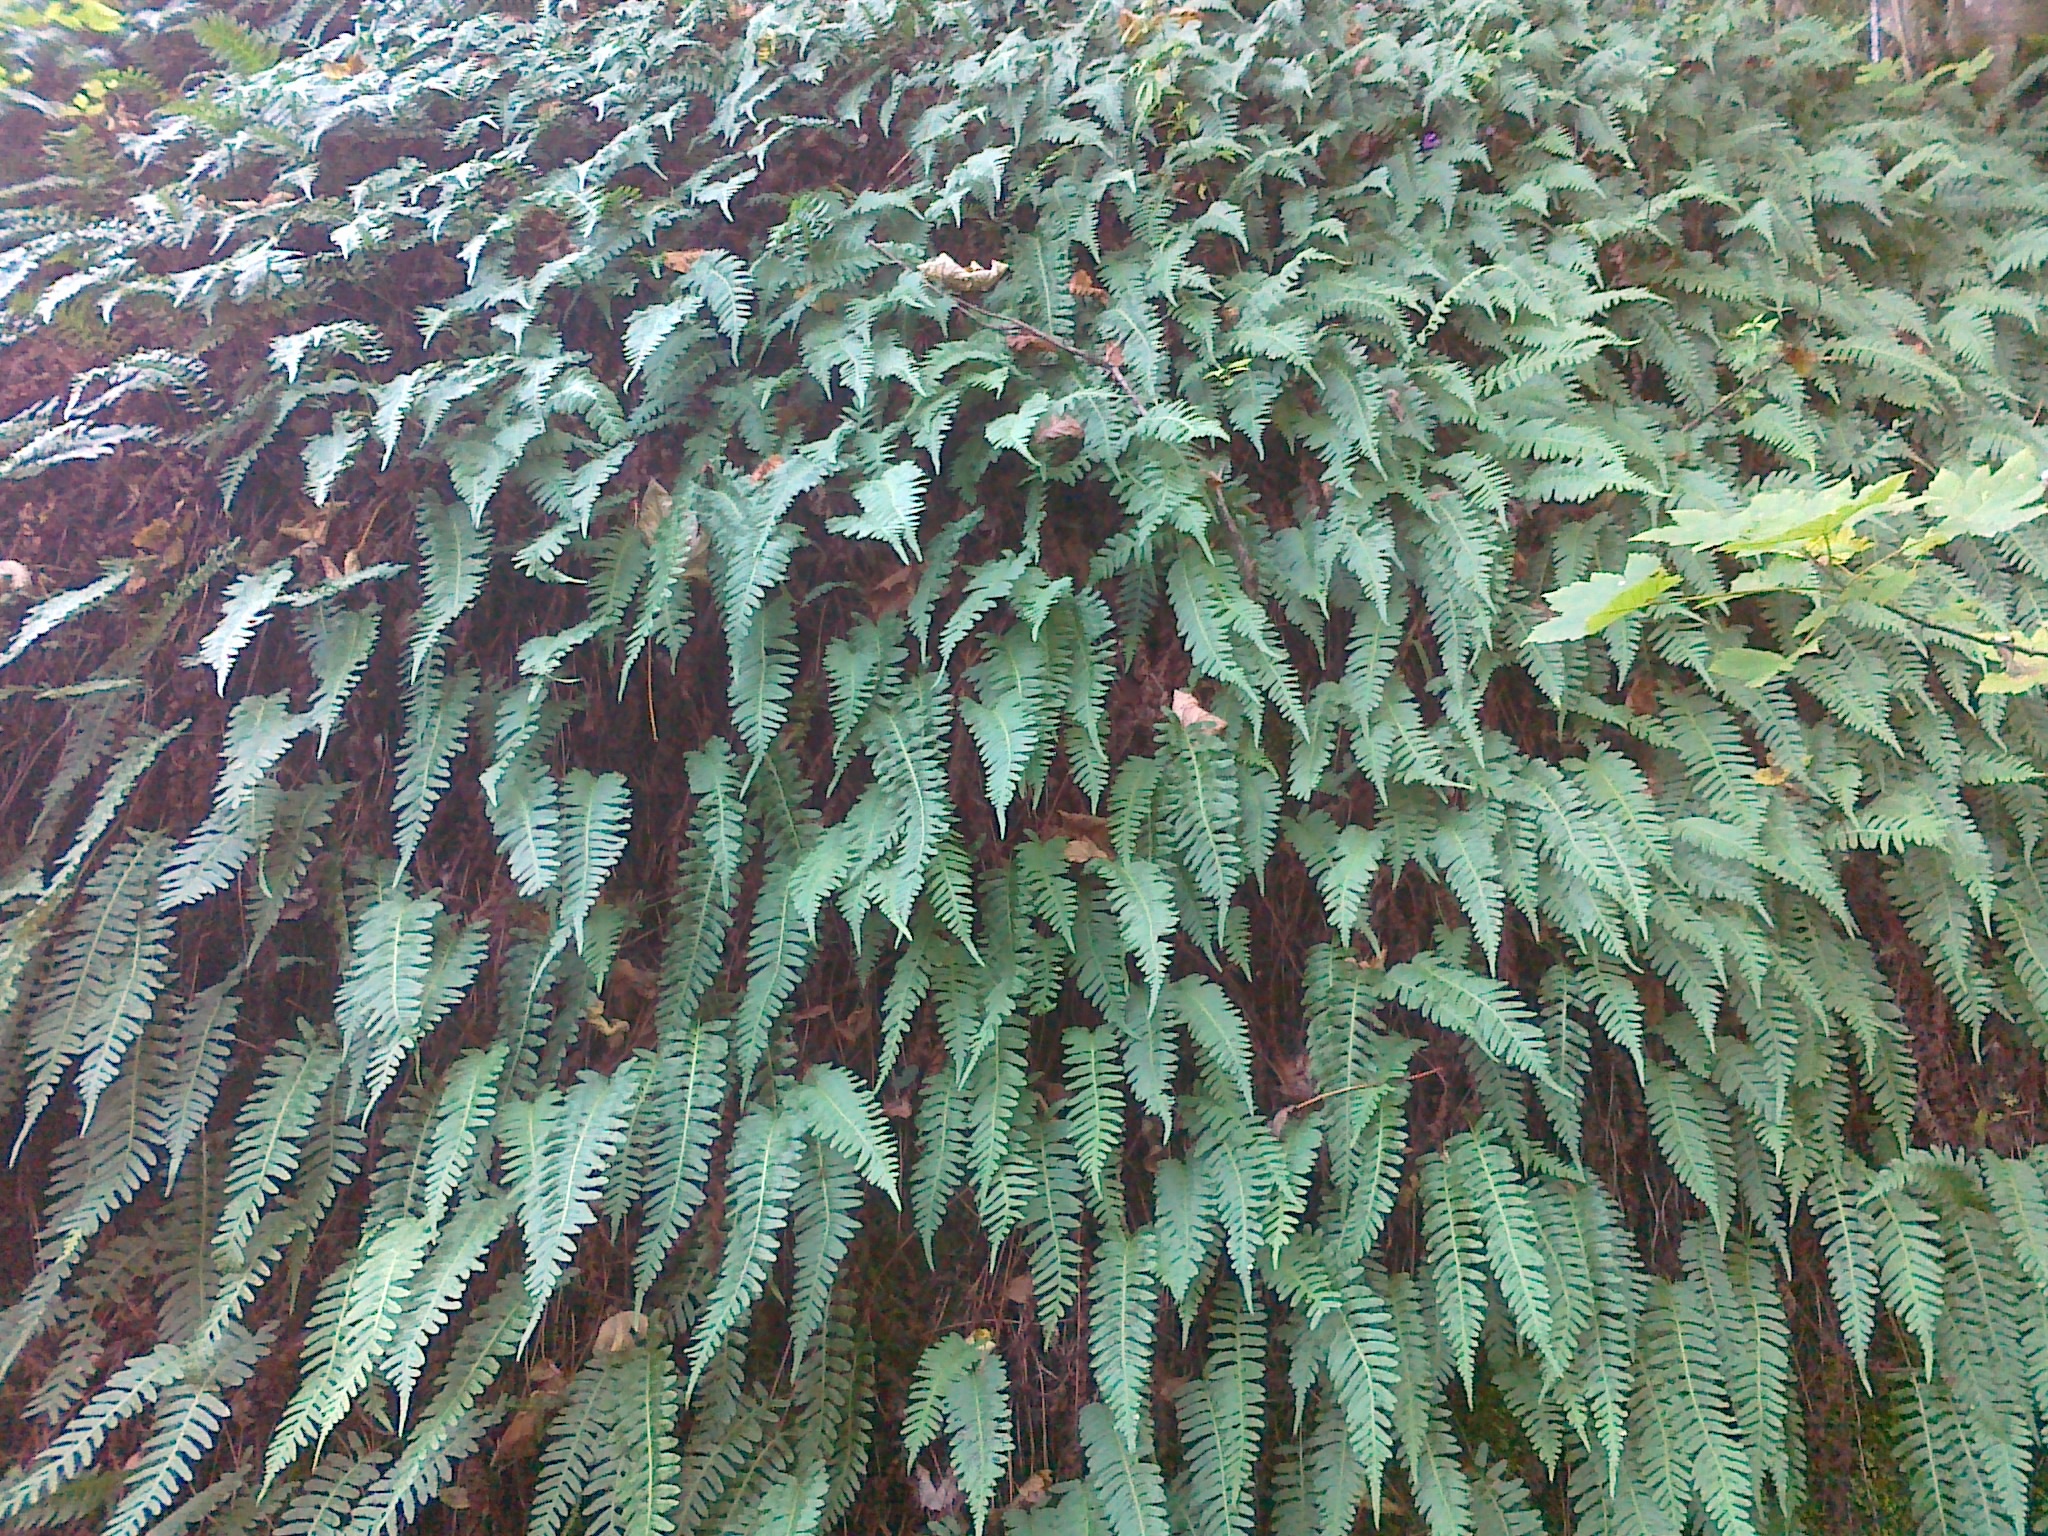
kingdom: Plantae
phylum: Tracheophyta
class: Polypodiopsida
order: Polypodiales
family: Polypodiaceae
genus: Polypodium
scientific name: Polypodium vulgare
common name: Common polypody
